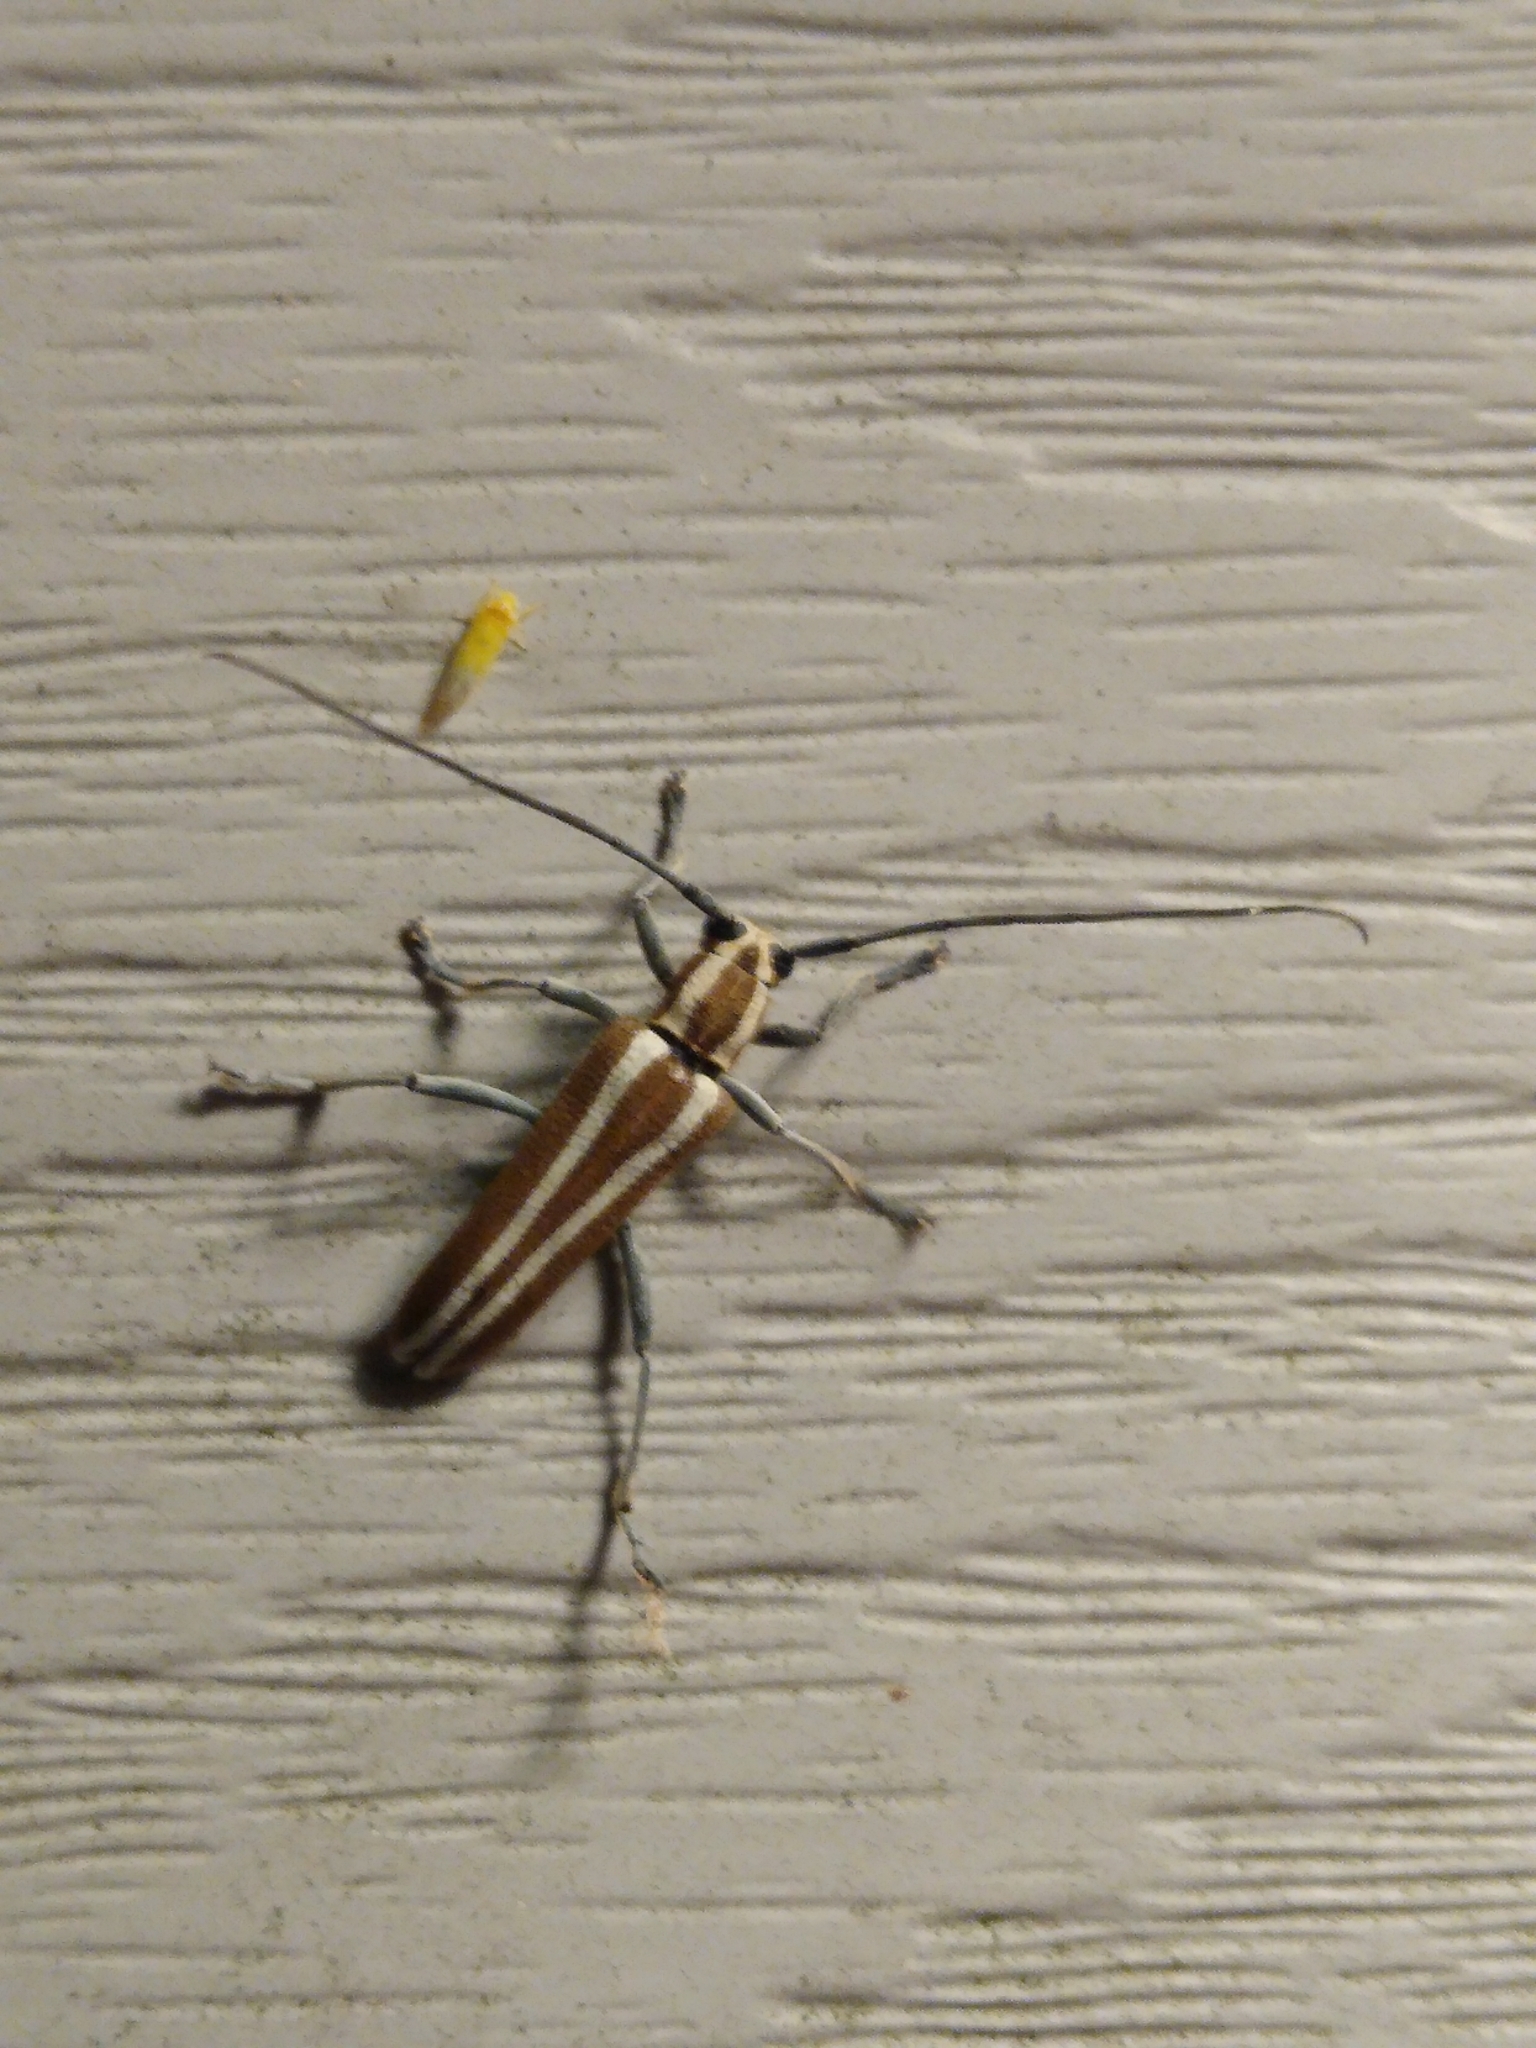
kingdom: Animalia
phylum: Arthropoda
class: Insecta
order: Coleoptera
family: Cerambycidae
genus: Saperda
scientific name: Saperda candida
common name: Round-headed borer
